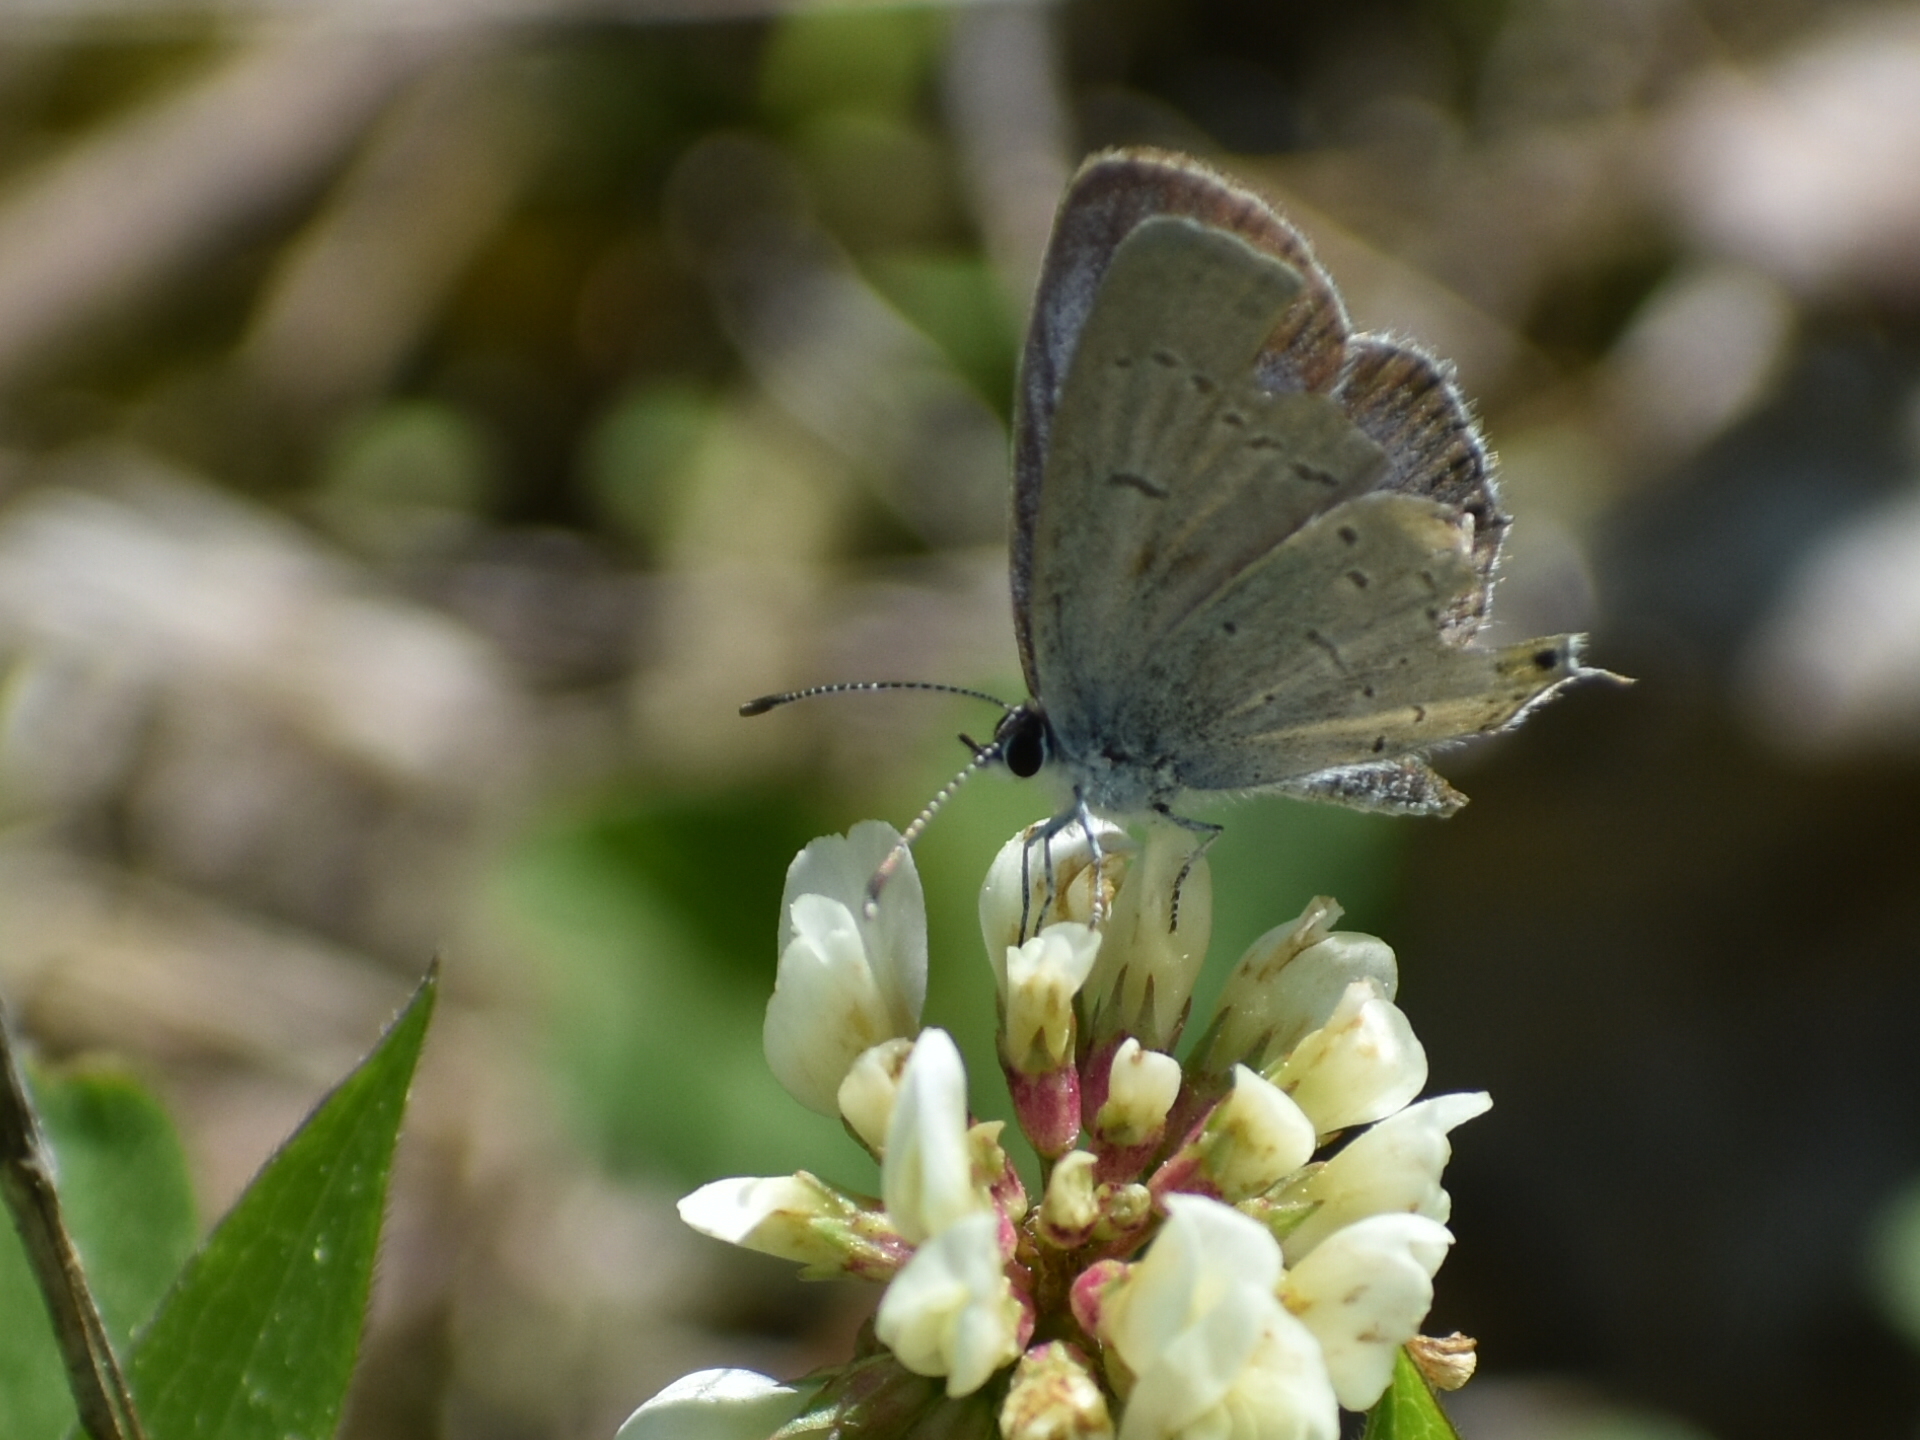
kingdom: Animalia
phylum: Arthropoda
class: Insecta
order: Lepidoptera
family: Lycaenidae
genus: Elkalyce
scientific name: Elkalyce comyntas
